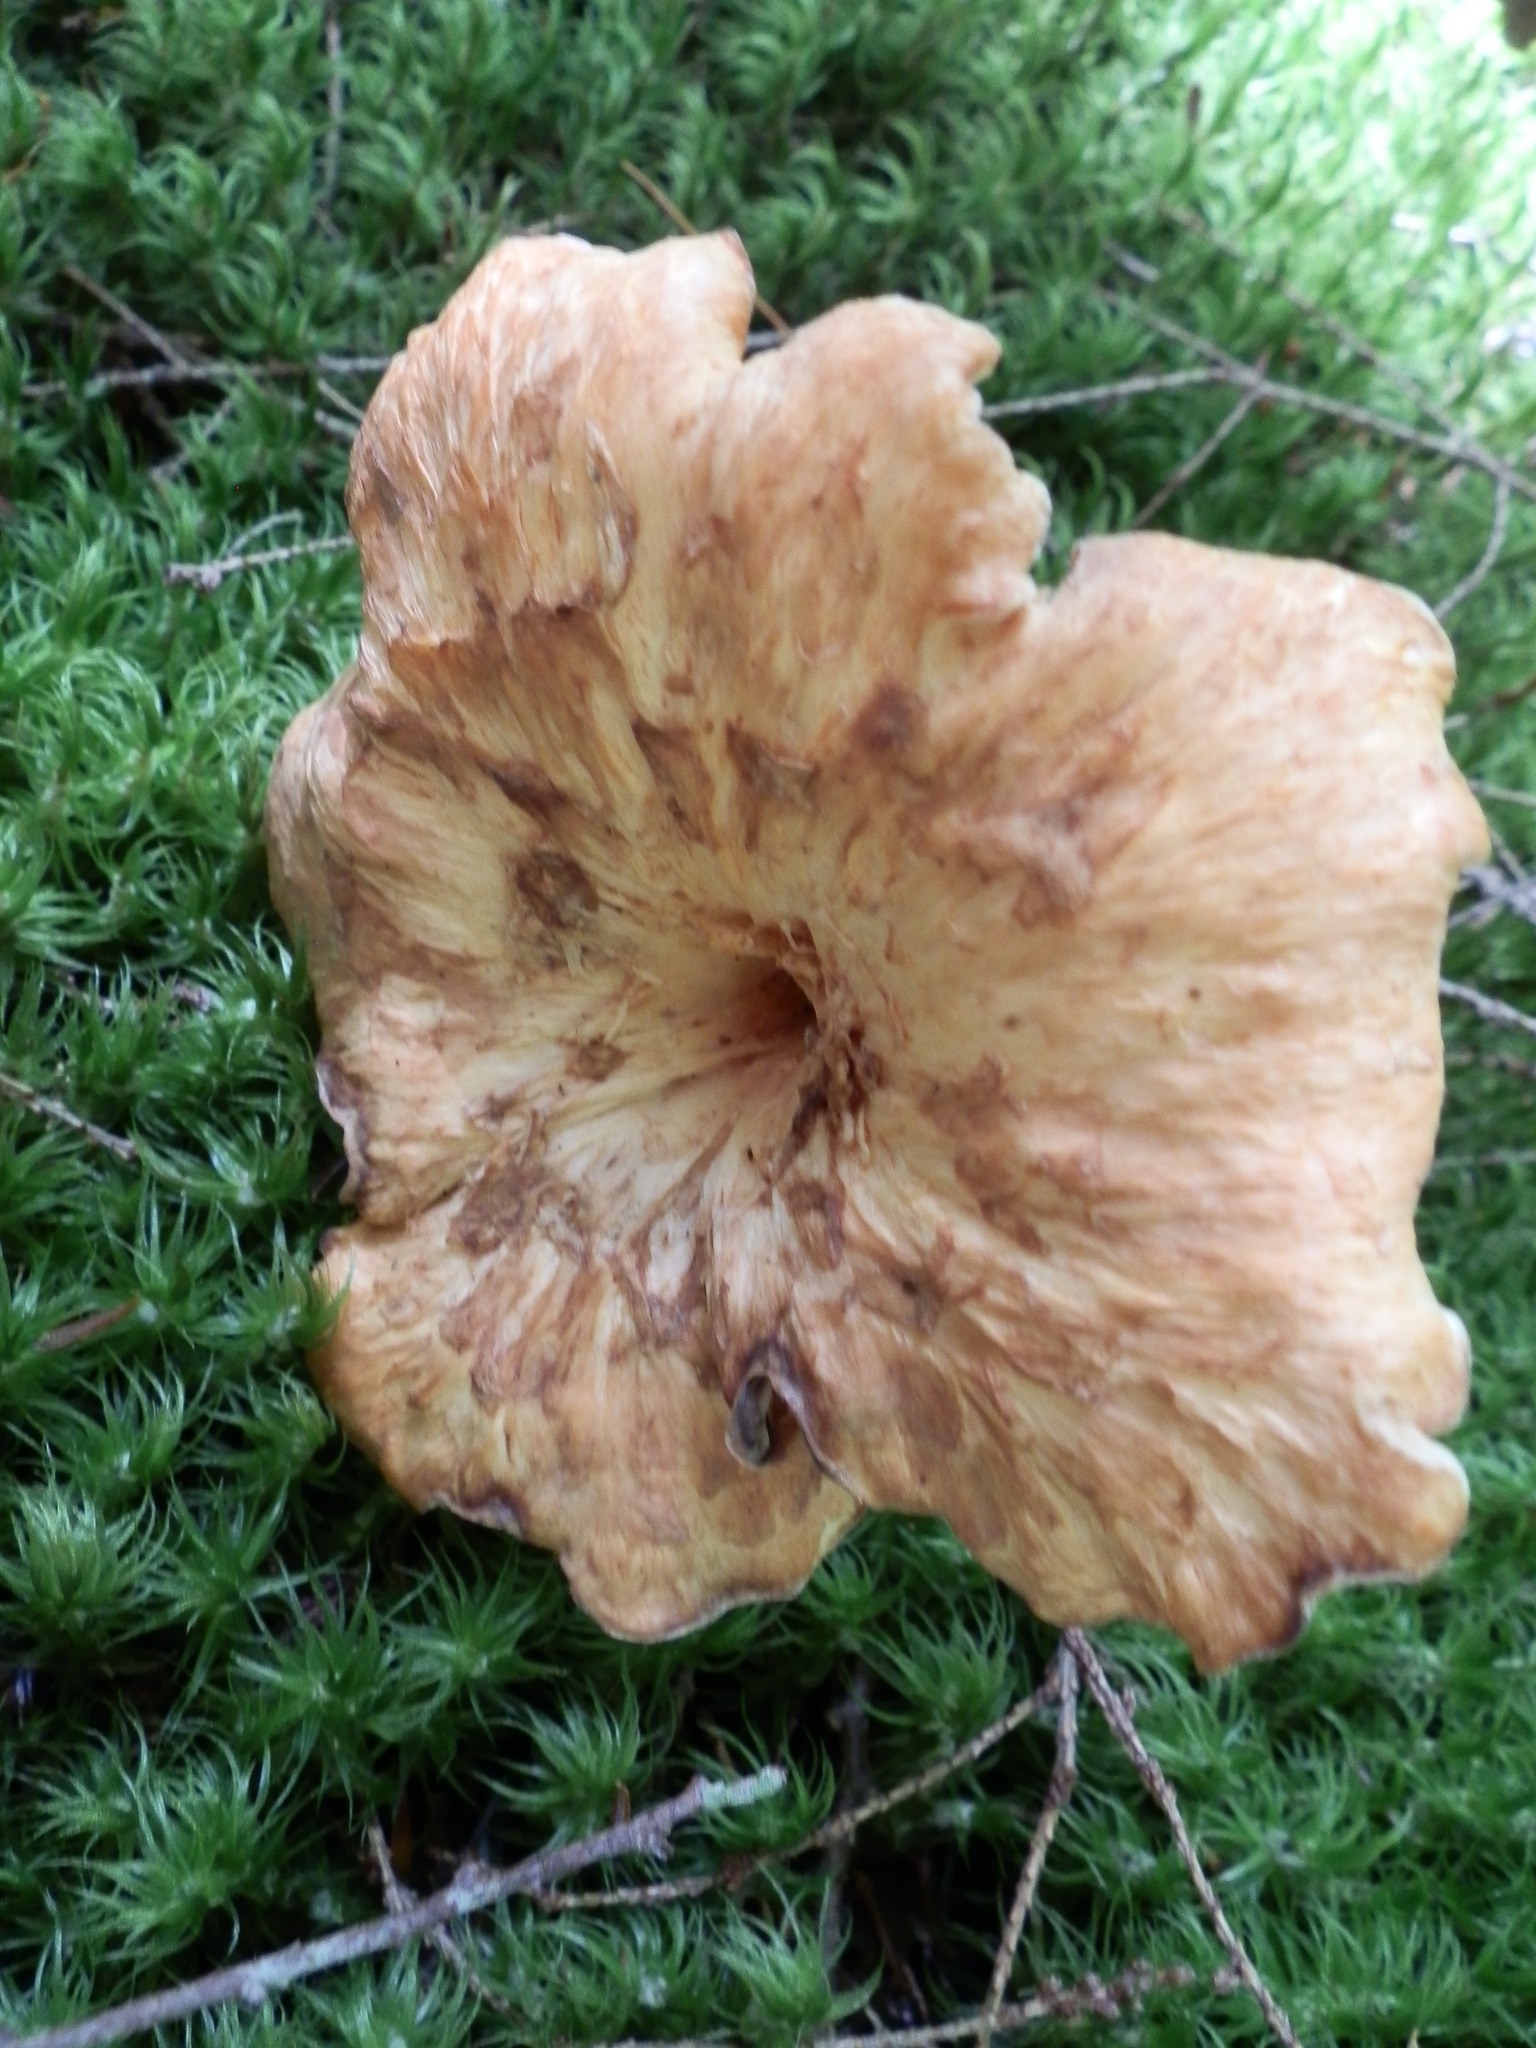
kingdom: Fungi
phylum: Basidiomycota
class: Agaricomycetes
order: Gomphales
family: Gomphaceae
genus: Turbinellus
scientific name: Turbinellus floccosus
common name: Scaly chanterelle
